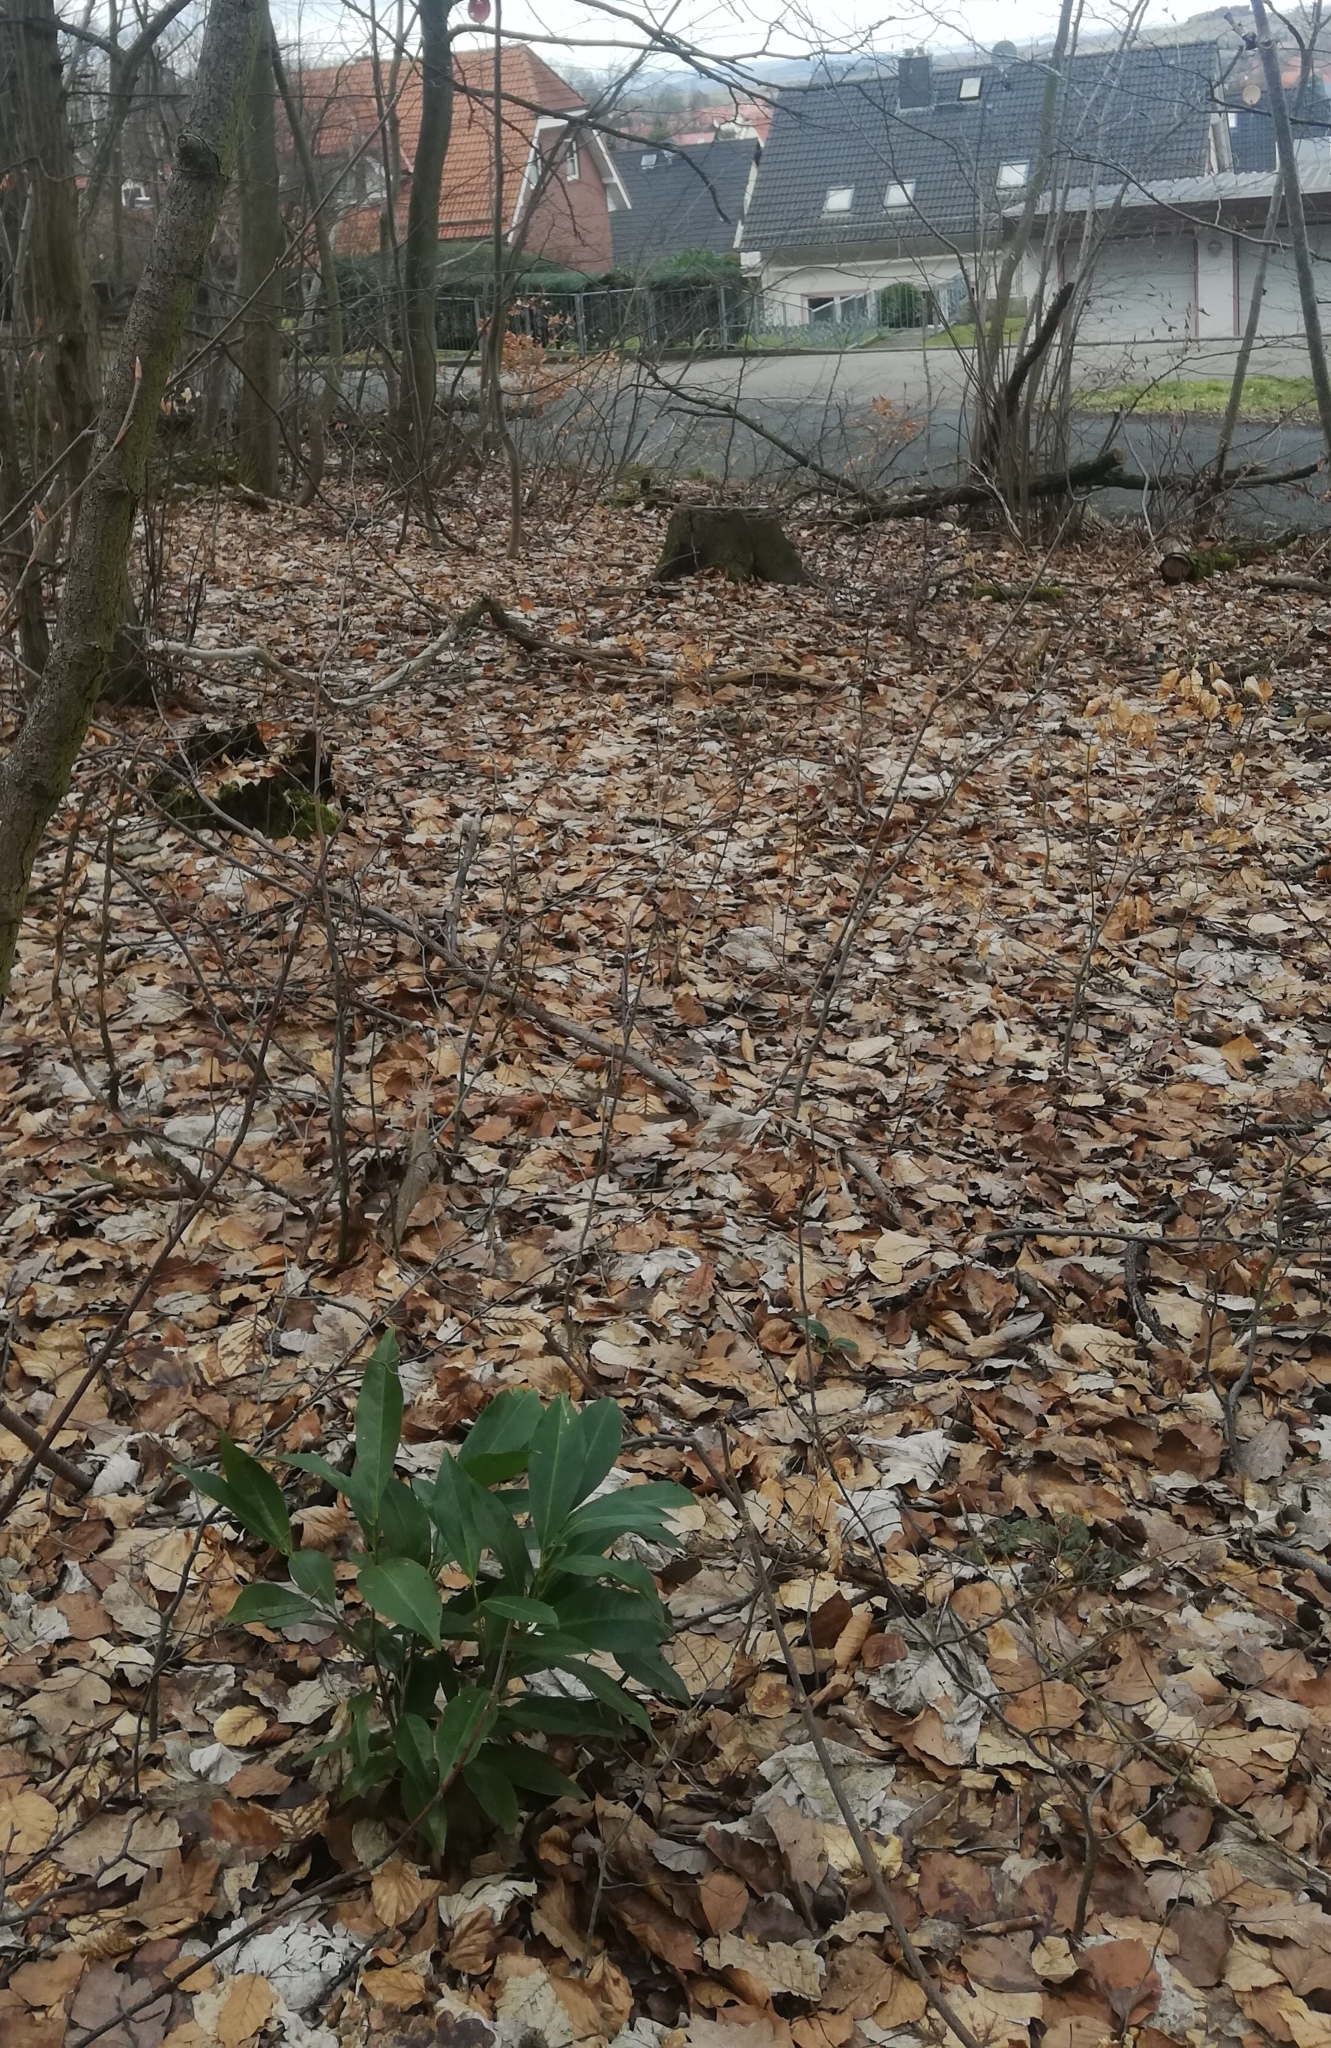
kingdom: Plantae
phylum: Tracheophyta
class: Magnoliopsida
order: Rosales
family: Rosaceae
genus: Prunus
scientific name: Prunus laurocerasus
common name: Cherry laurel
